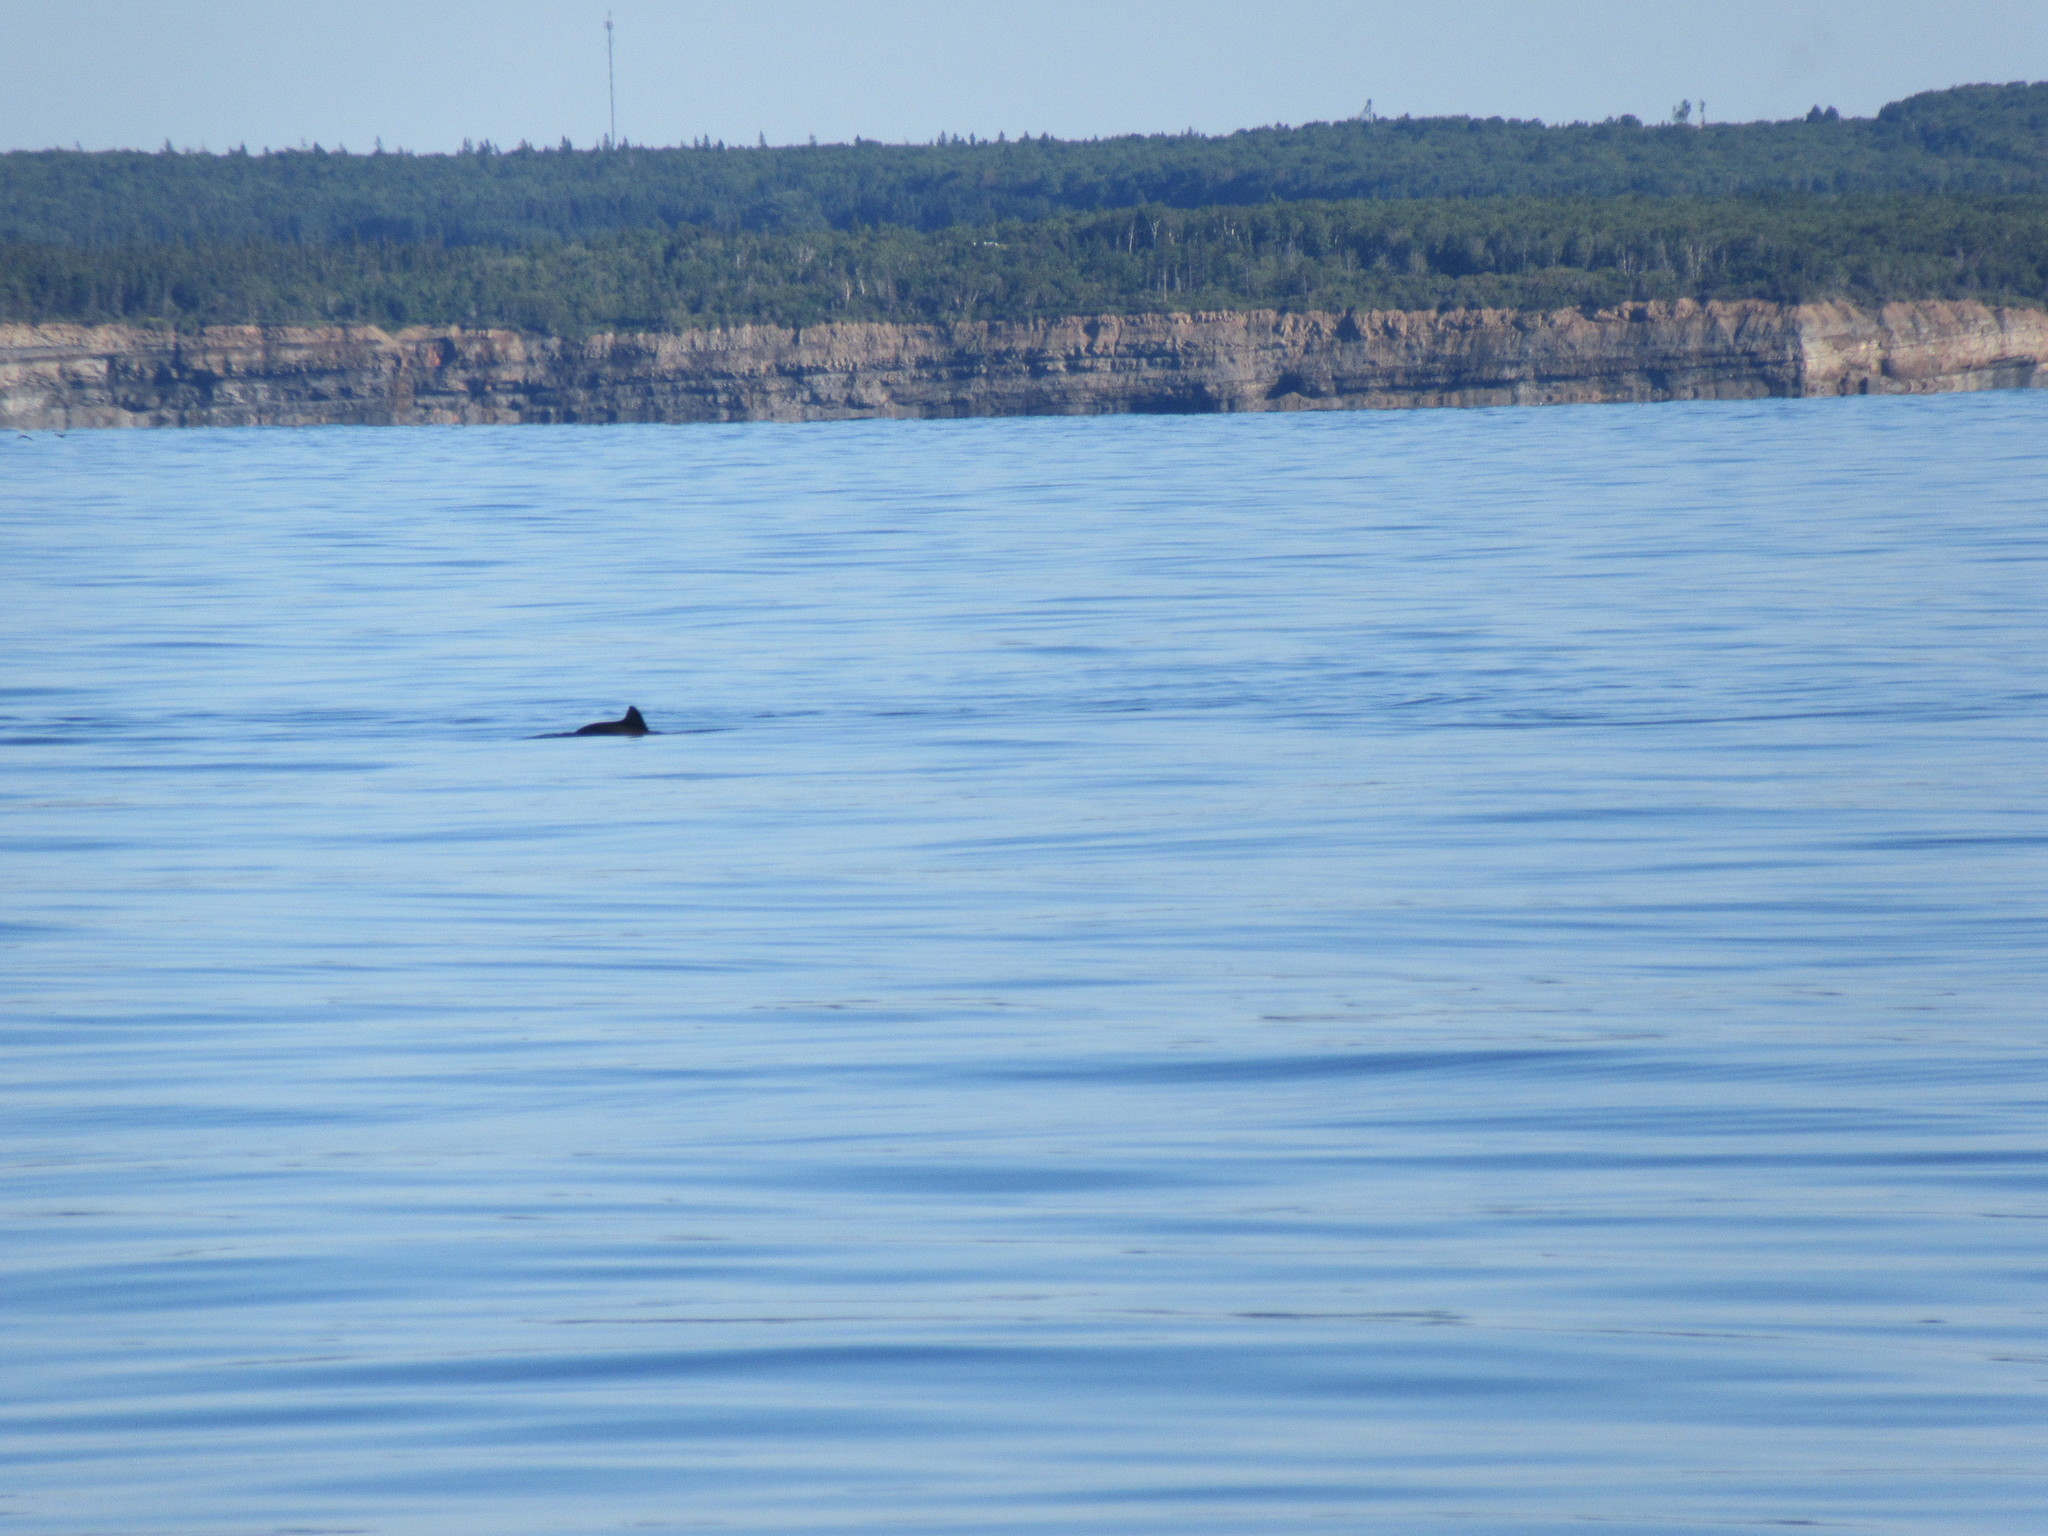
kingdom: Animalia
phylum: Chordata
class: Mammalia
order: Cetacea
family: Phocoenidae
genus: Phocoena
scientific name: Phocoena phocoena
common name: Harbor porpoise
